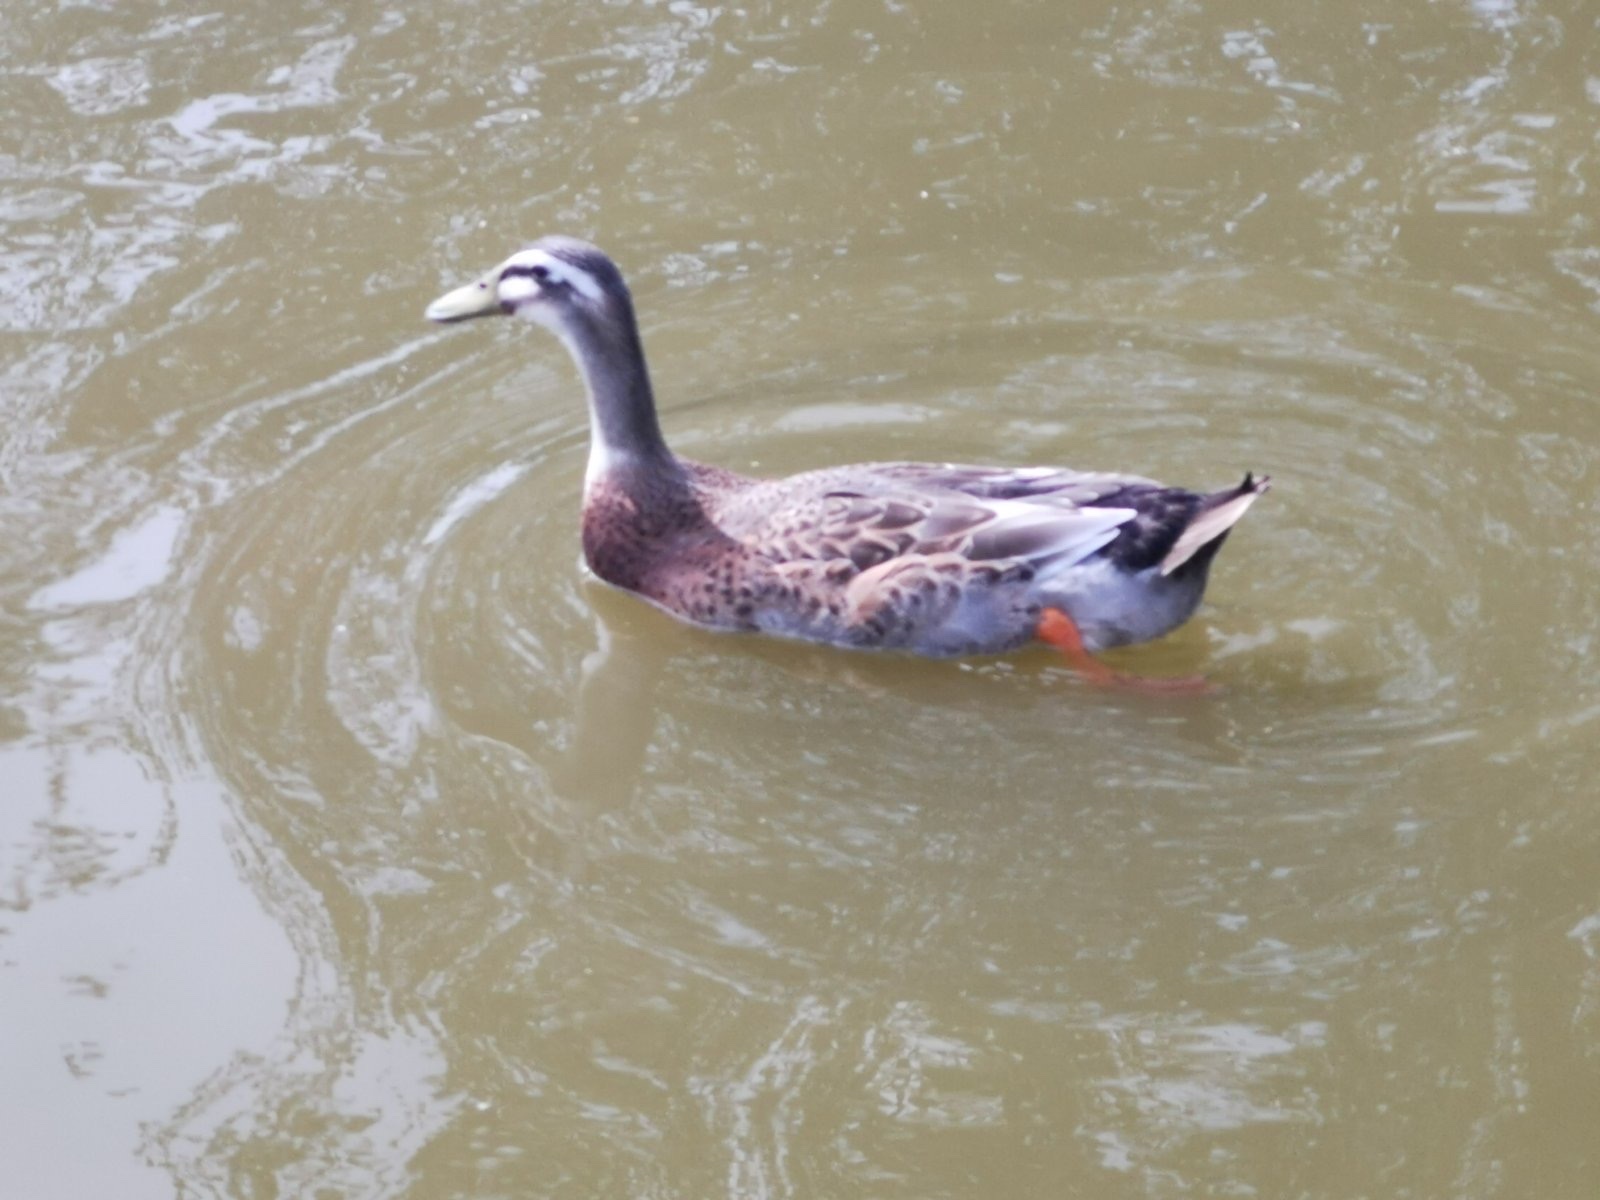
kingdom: Animalia
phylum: Chordata
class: Aves
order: Anseriformes
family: Anatidae
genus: Anas
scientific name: Anas platyrhynchos
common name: Mallard
